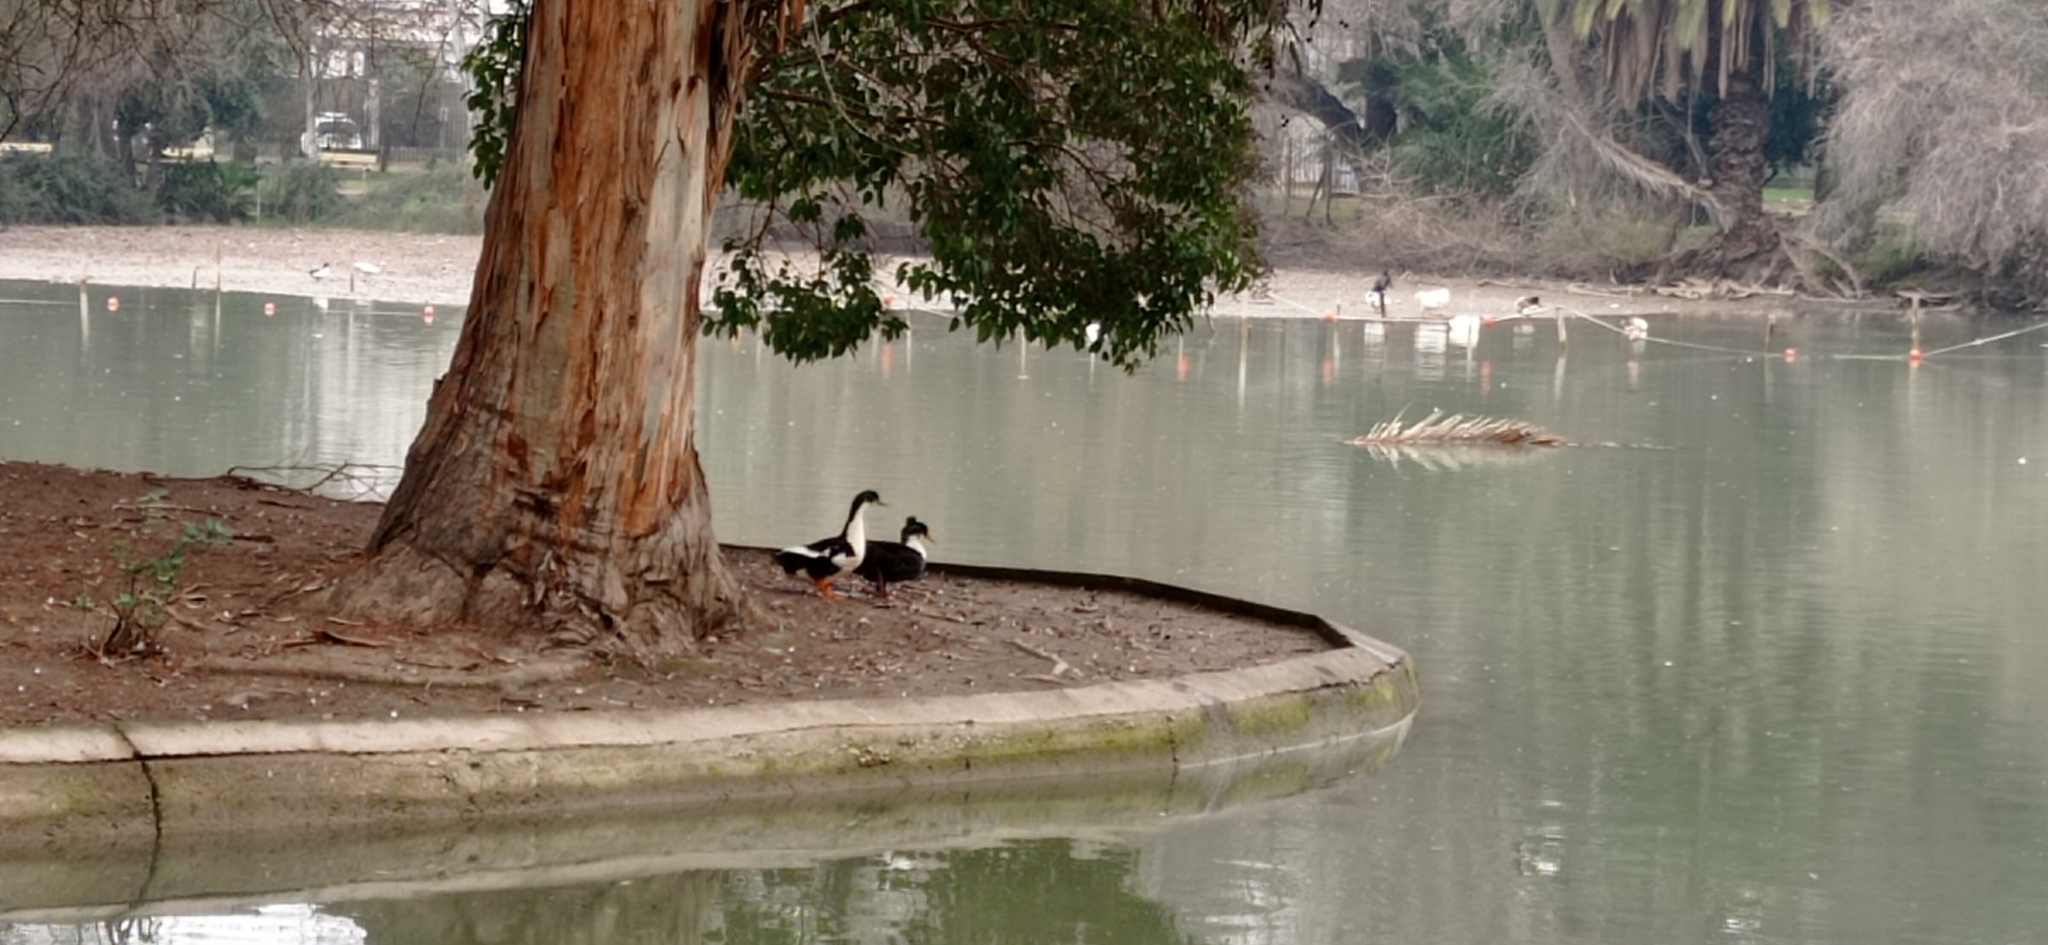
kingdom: Animalia
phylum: Chordata
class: Aves
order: Anseriformes
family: Anatidae
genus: Anas
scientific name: Anas platyrhynchos
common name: Mallard
